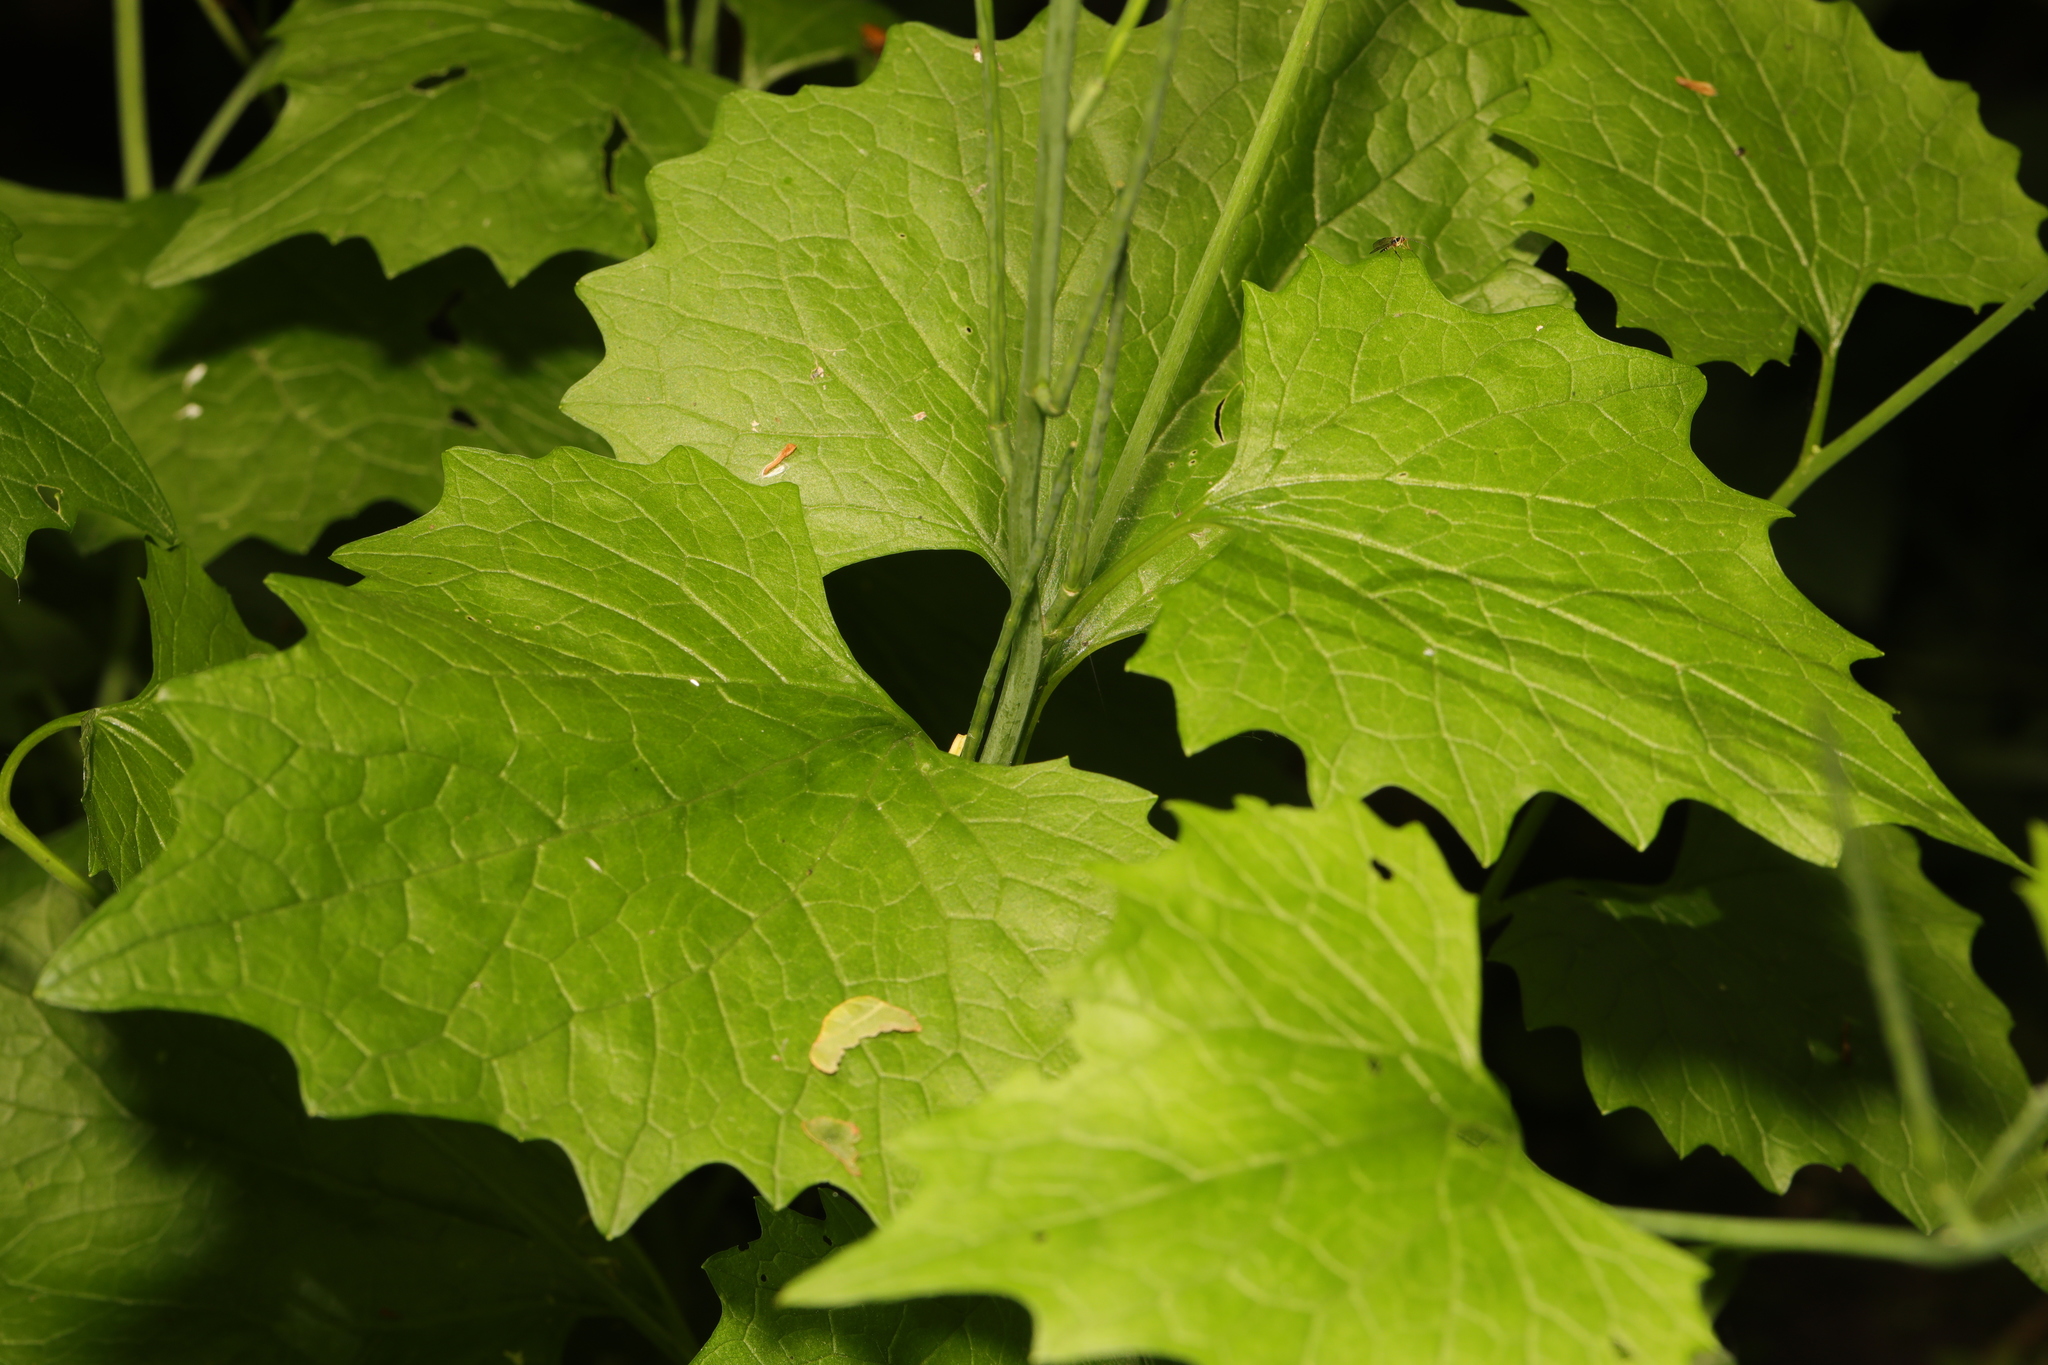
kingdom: Plantae
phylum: Tracheophyta
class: Magnoliopsida
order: Brassicales
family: Brassicaceae
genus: Alliaria
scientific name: Alliaria petiolata
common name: Garlic mustard
